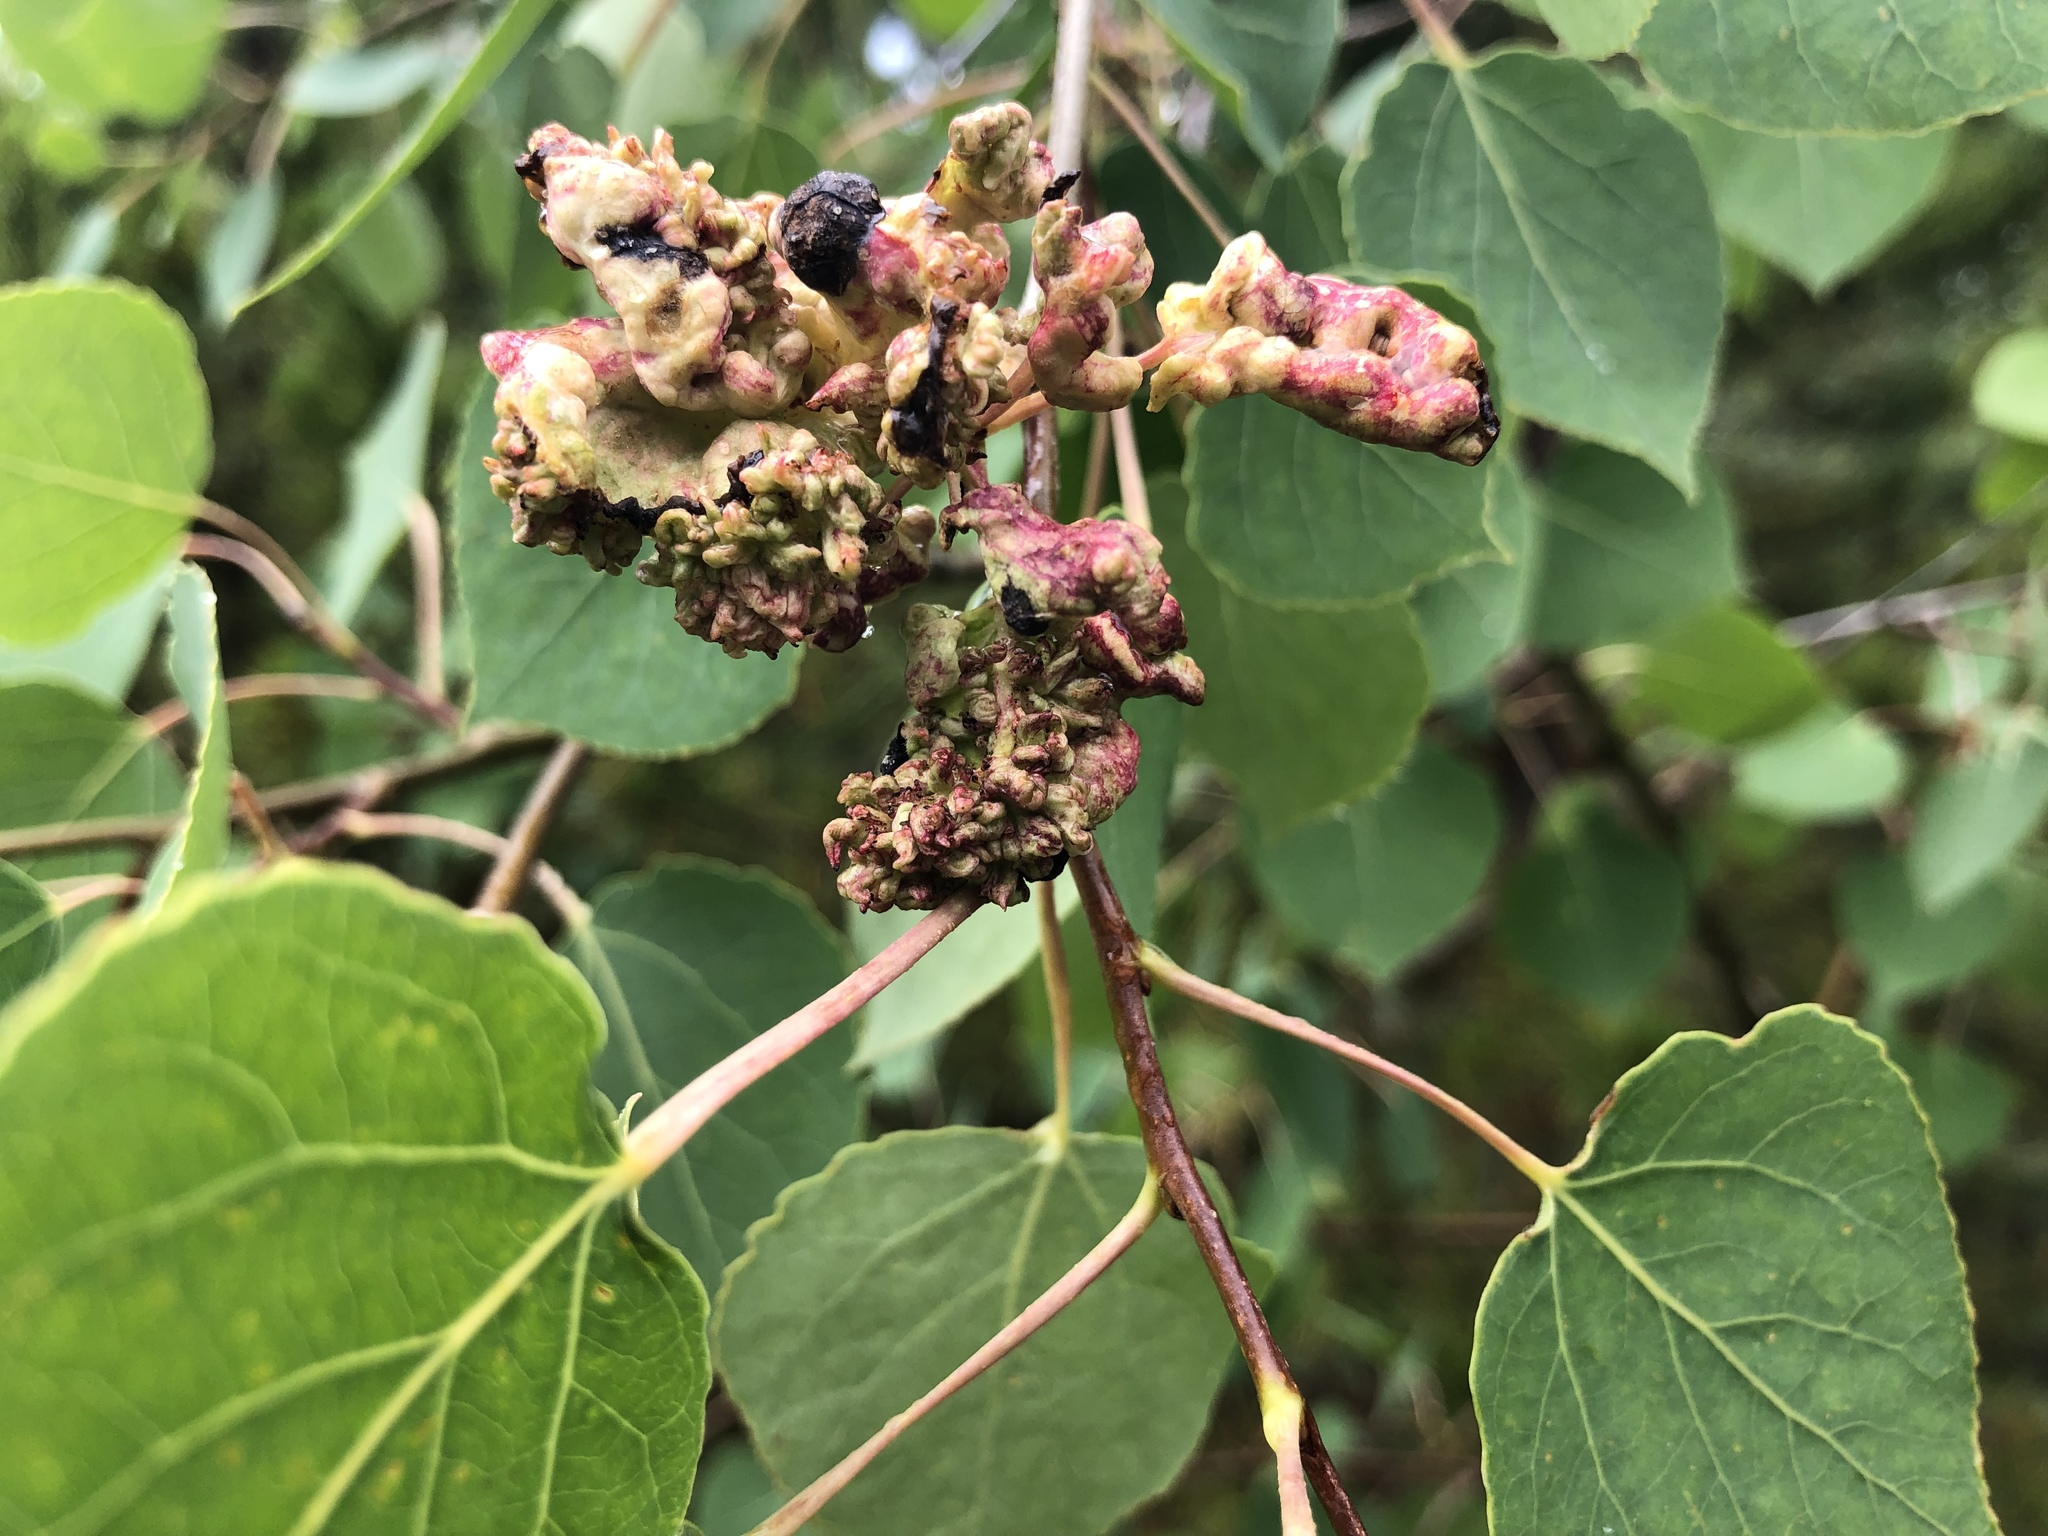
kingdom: Animalia
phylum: Arthropoda
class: Arachnida
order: Trombidiformes
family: Eriophyidae
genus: Aceria
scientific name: Aceria dispar
